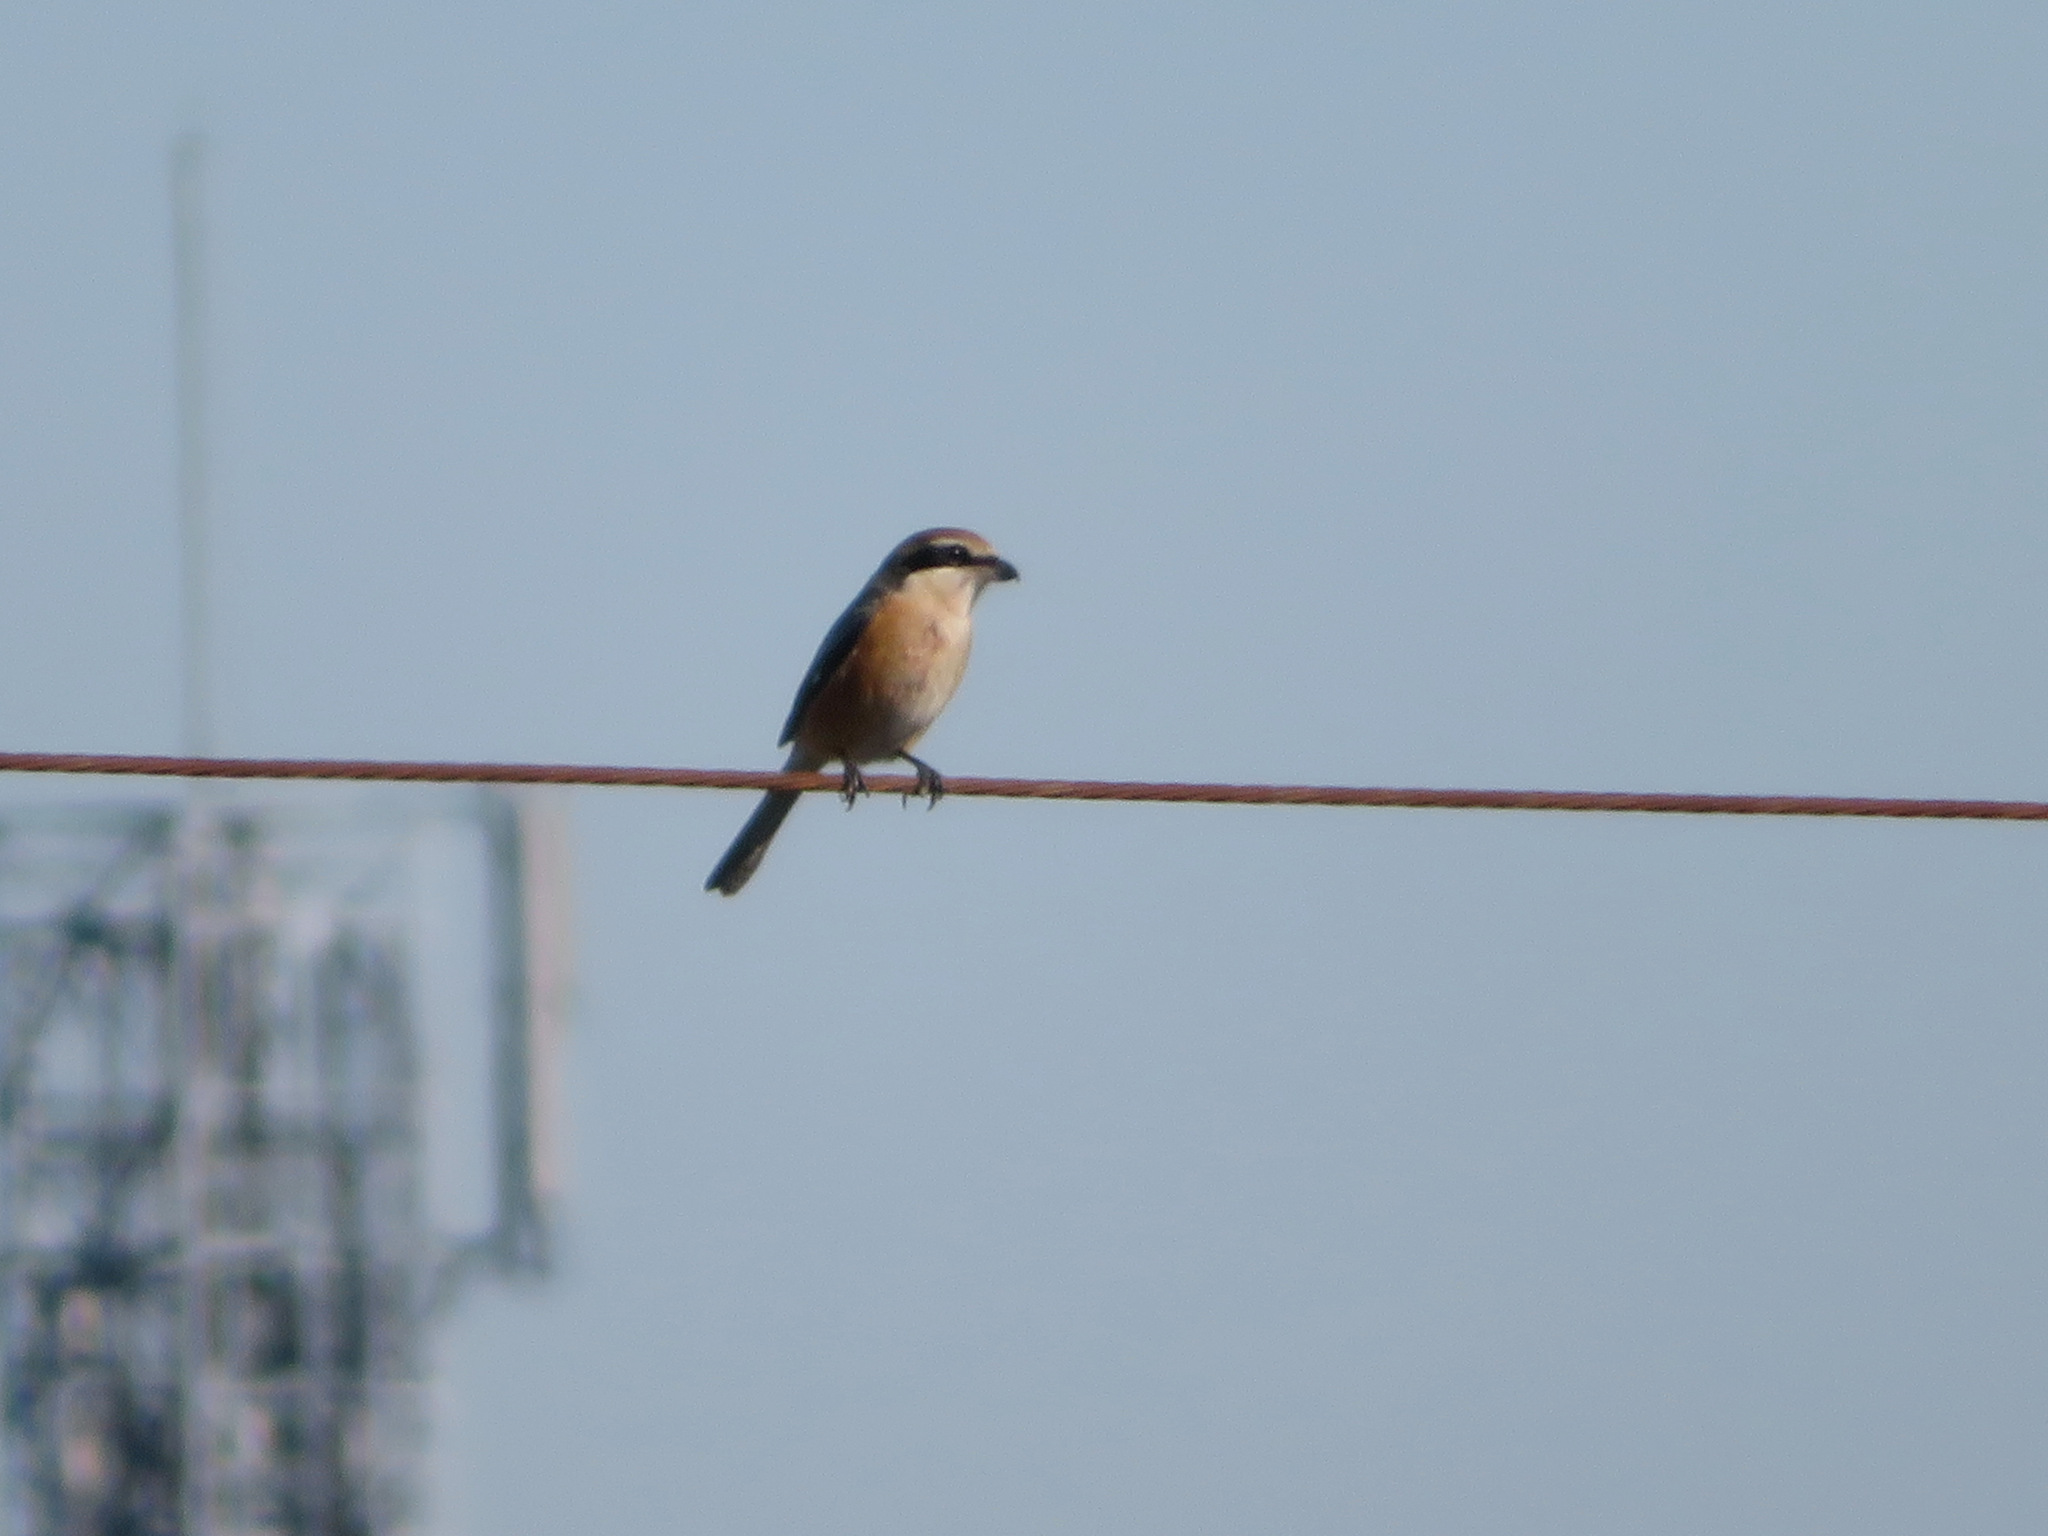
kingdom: Animalia
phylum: Chordata
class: Aves
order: Passeriformes
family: Laniidae
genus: Lanius
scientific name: Lanius bucephalus
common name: Bull-headed shrike
